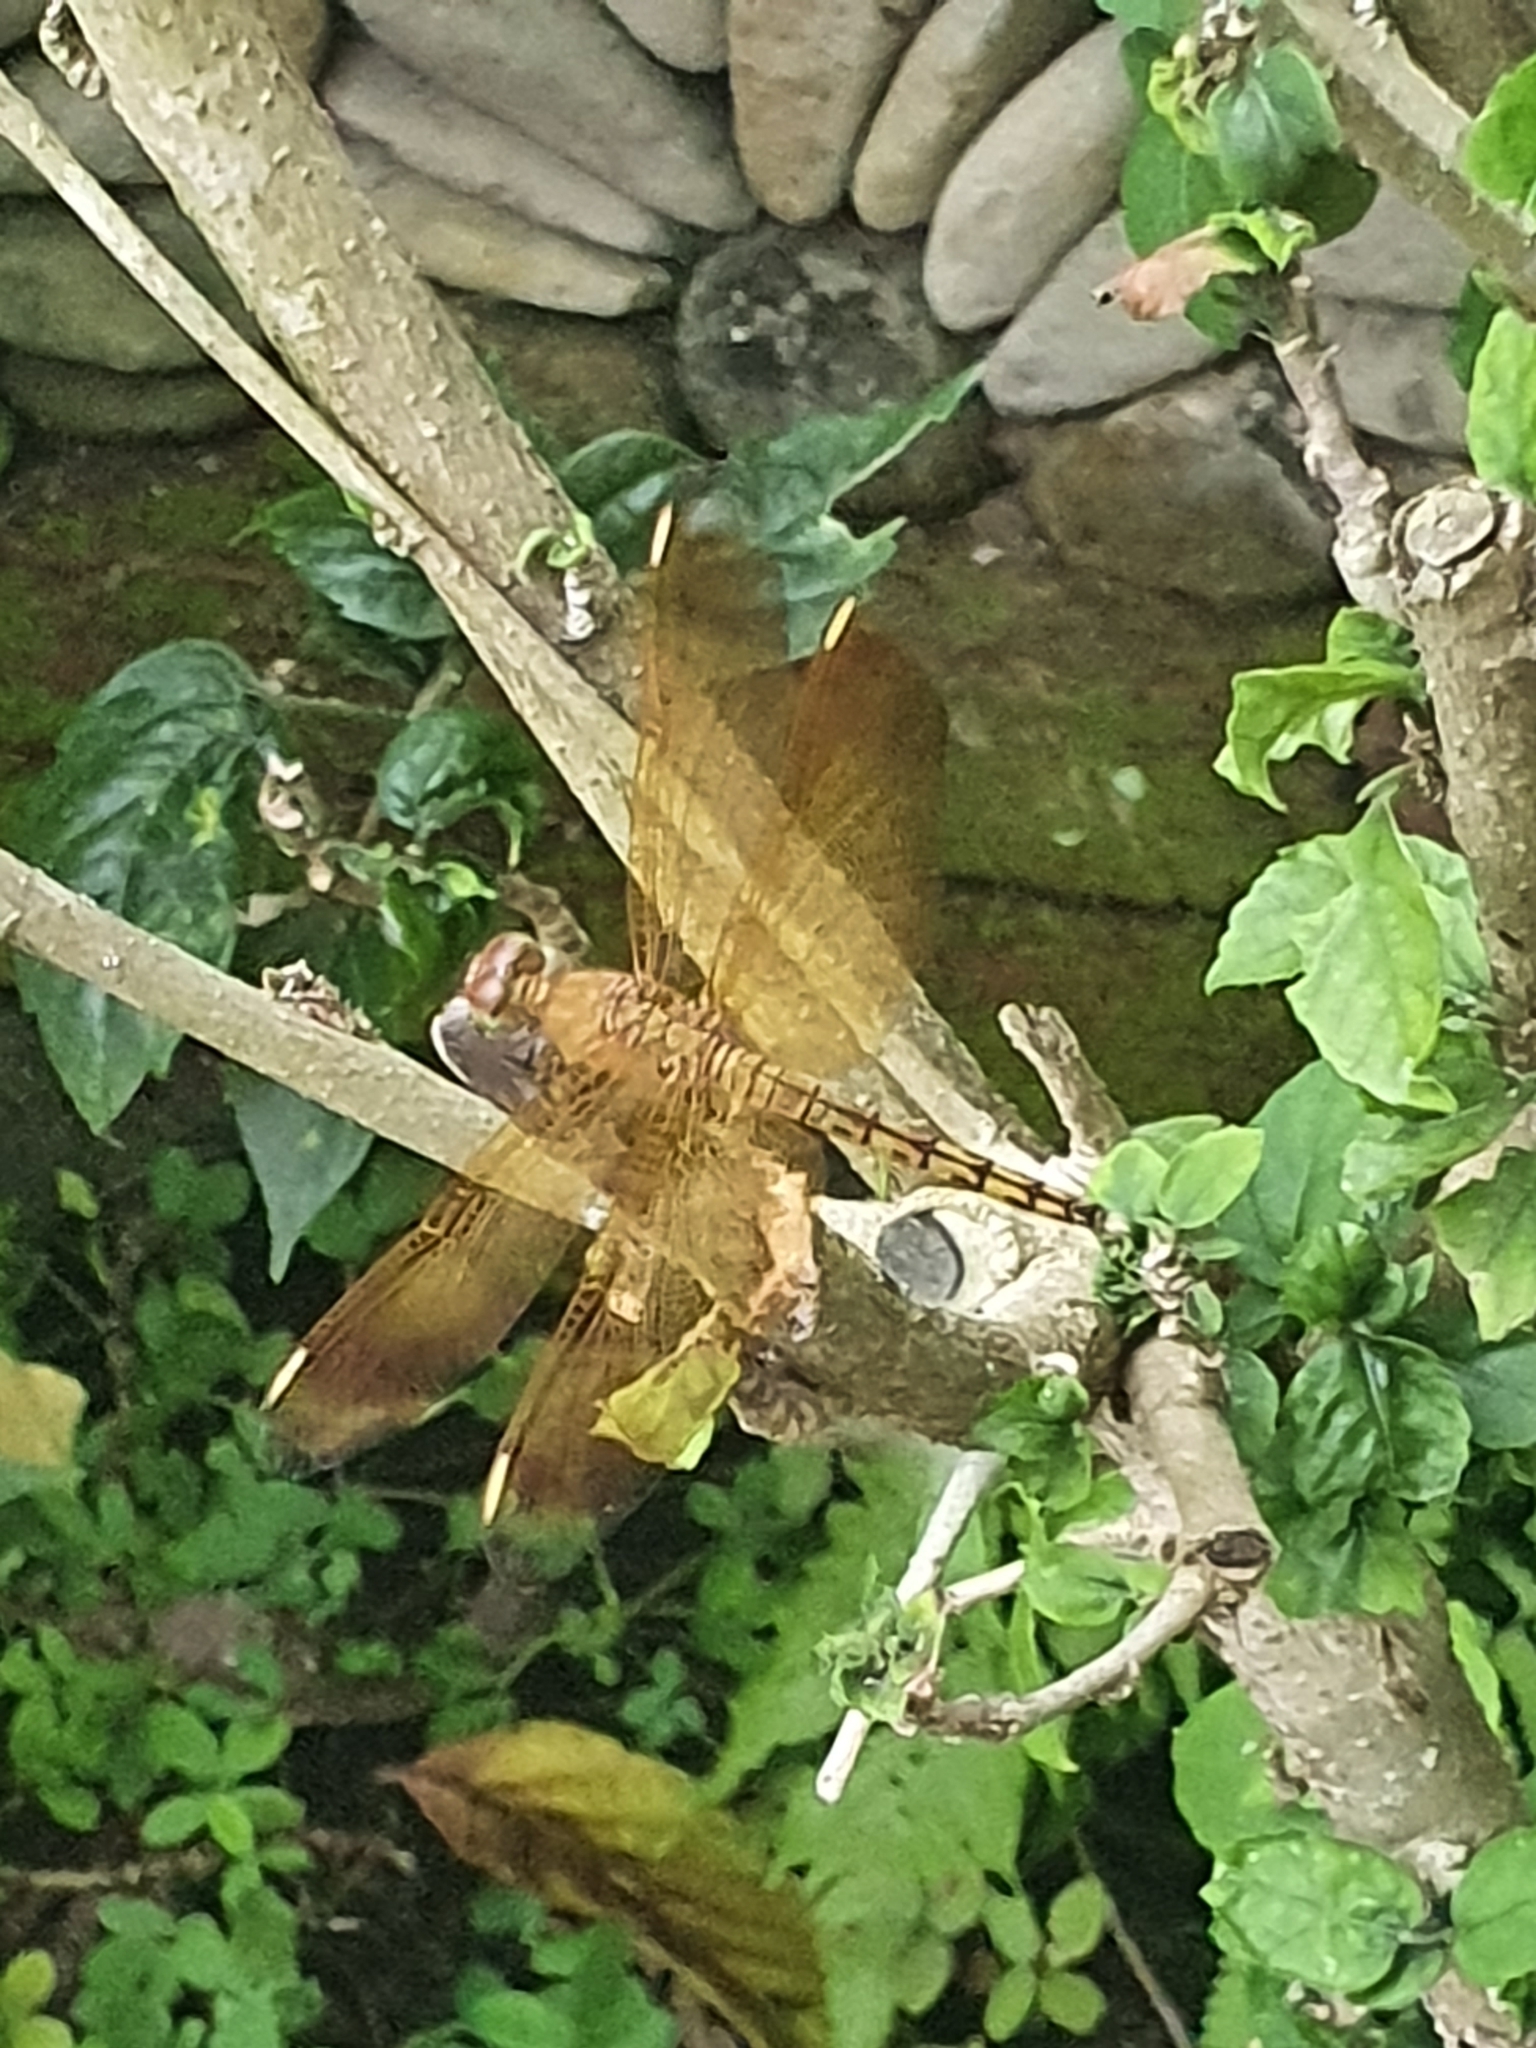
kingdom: Animalia
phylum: Arthropoda
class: Insecta
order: Odonata
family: Libellulidae
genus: Neurothemis
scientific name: Neurothemis terminata
